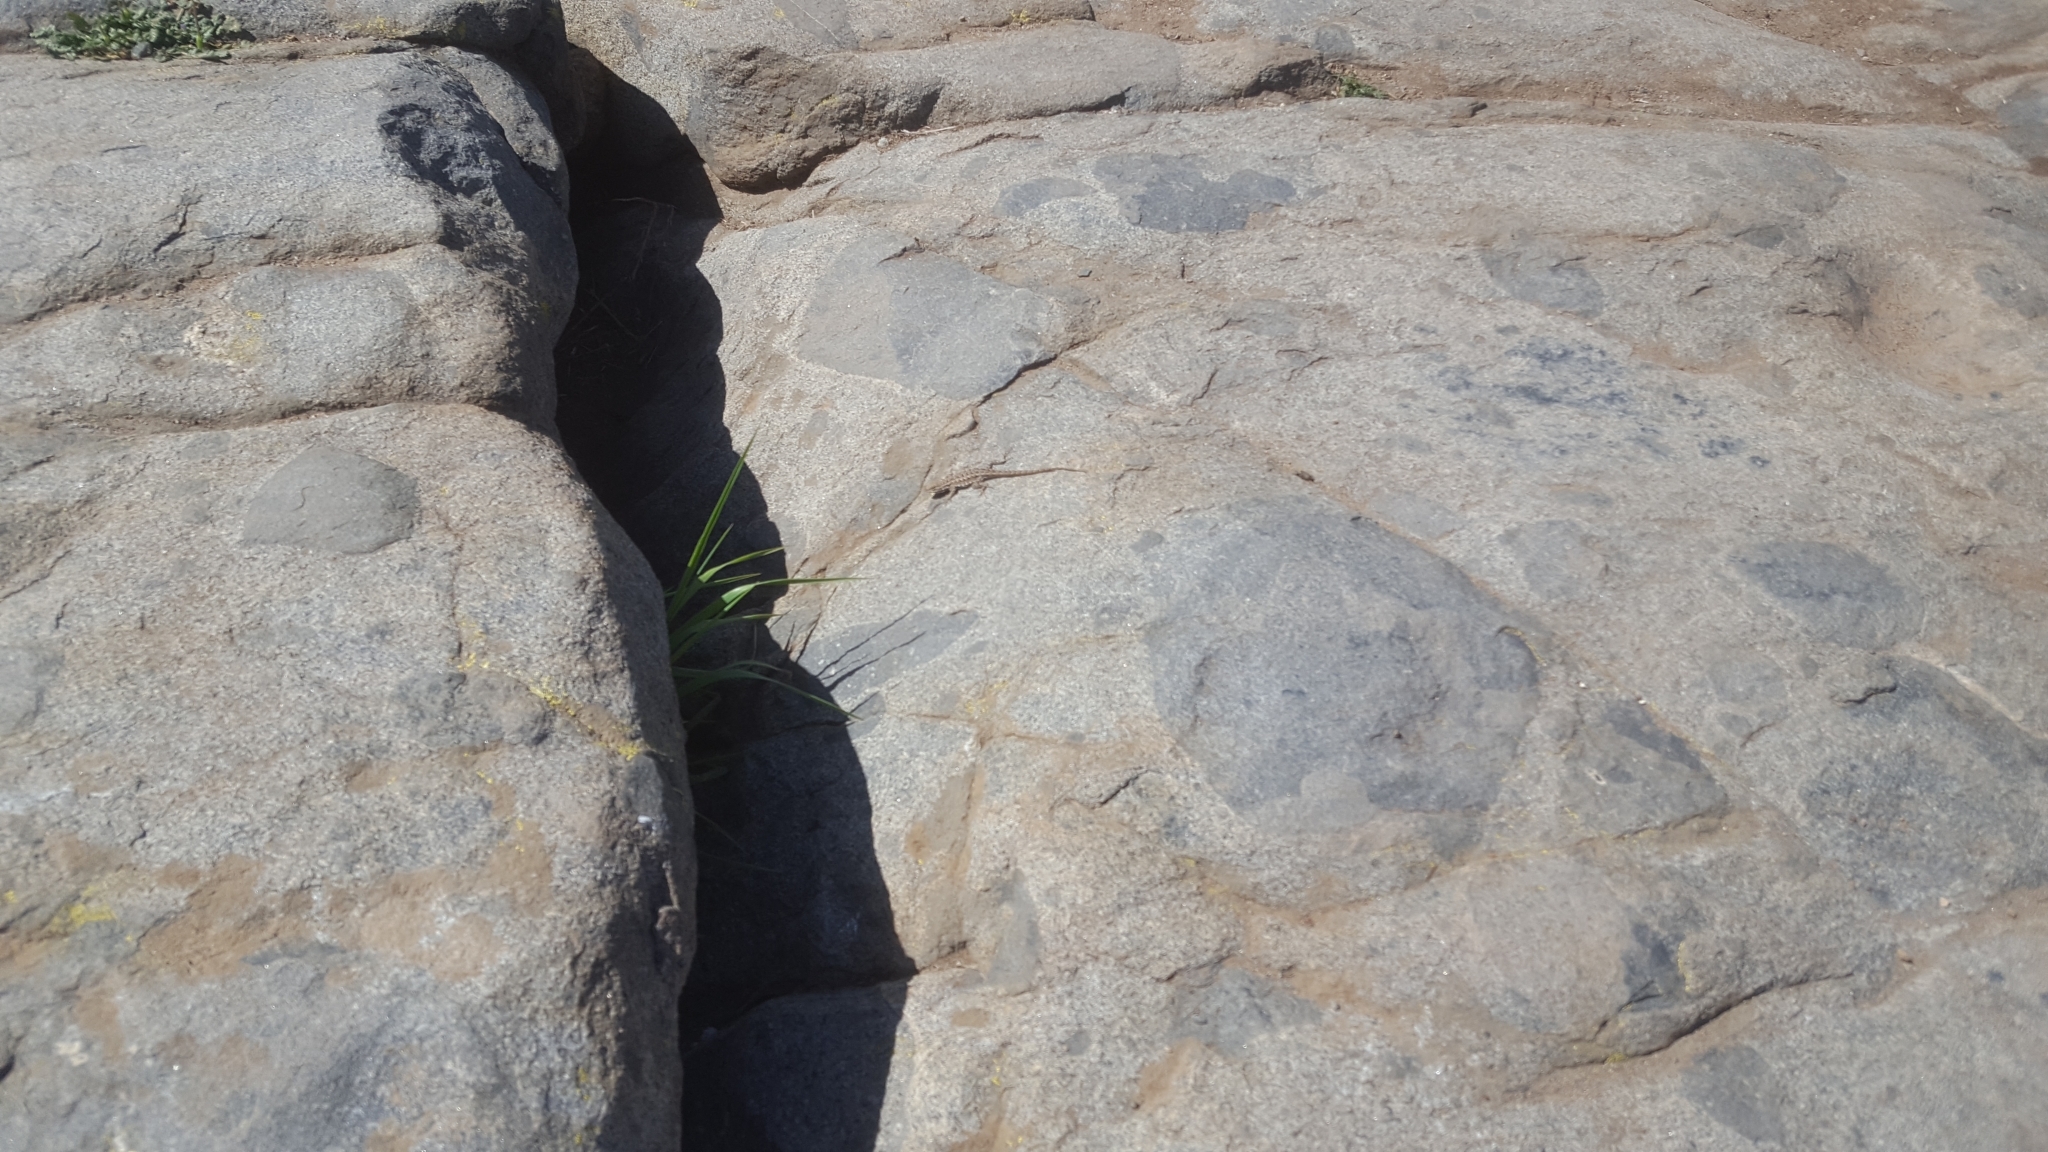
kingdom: Animalia
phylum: Chordata
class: Squamata
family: Phrynosomatidae
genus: Uta
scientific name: Uta stansburiana
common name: Side-blotched lizard
